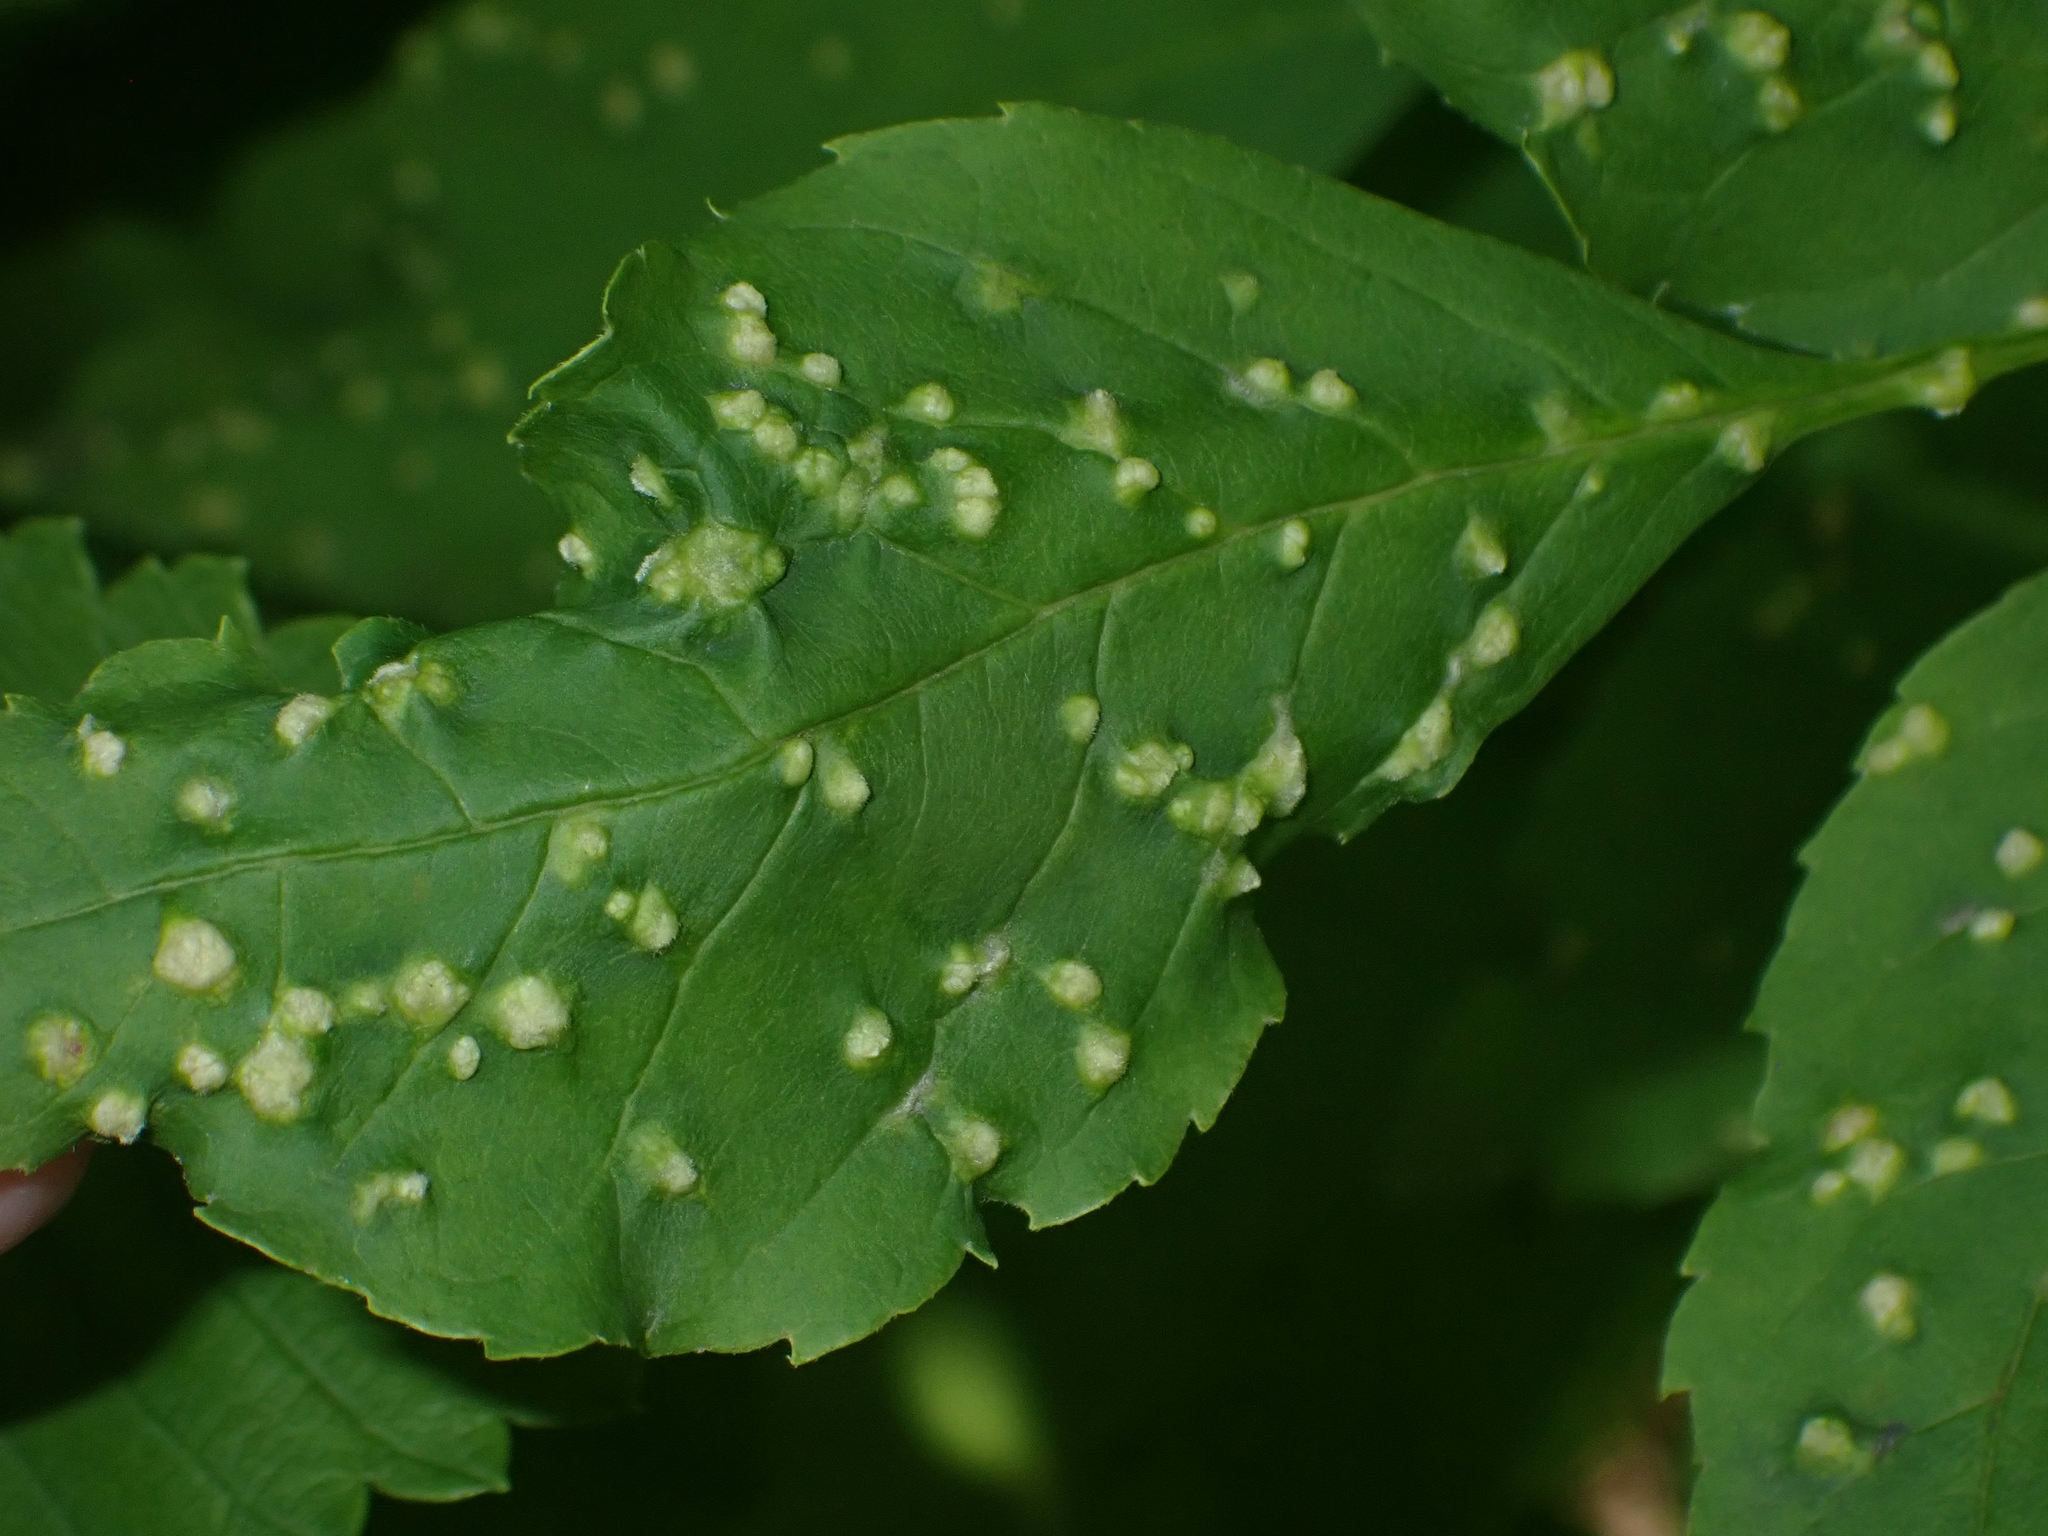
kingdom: Animalia
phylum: Arthropoda
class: Arachnida
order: Trombidiformes
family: Eriophyidae
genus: Aceria
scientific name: Aceria fraxinicola
